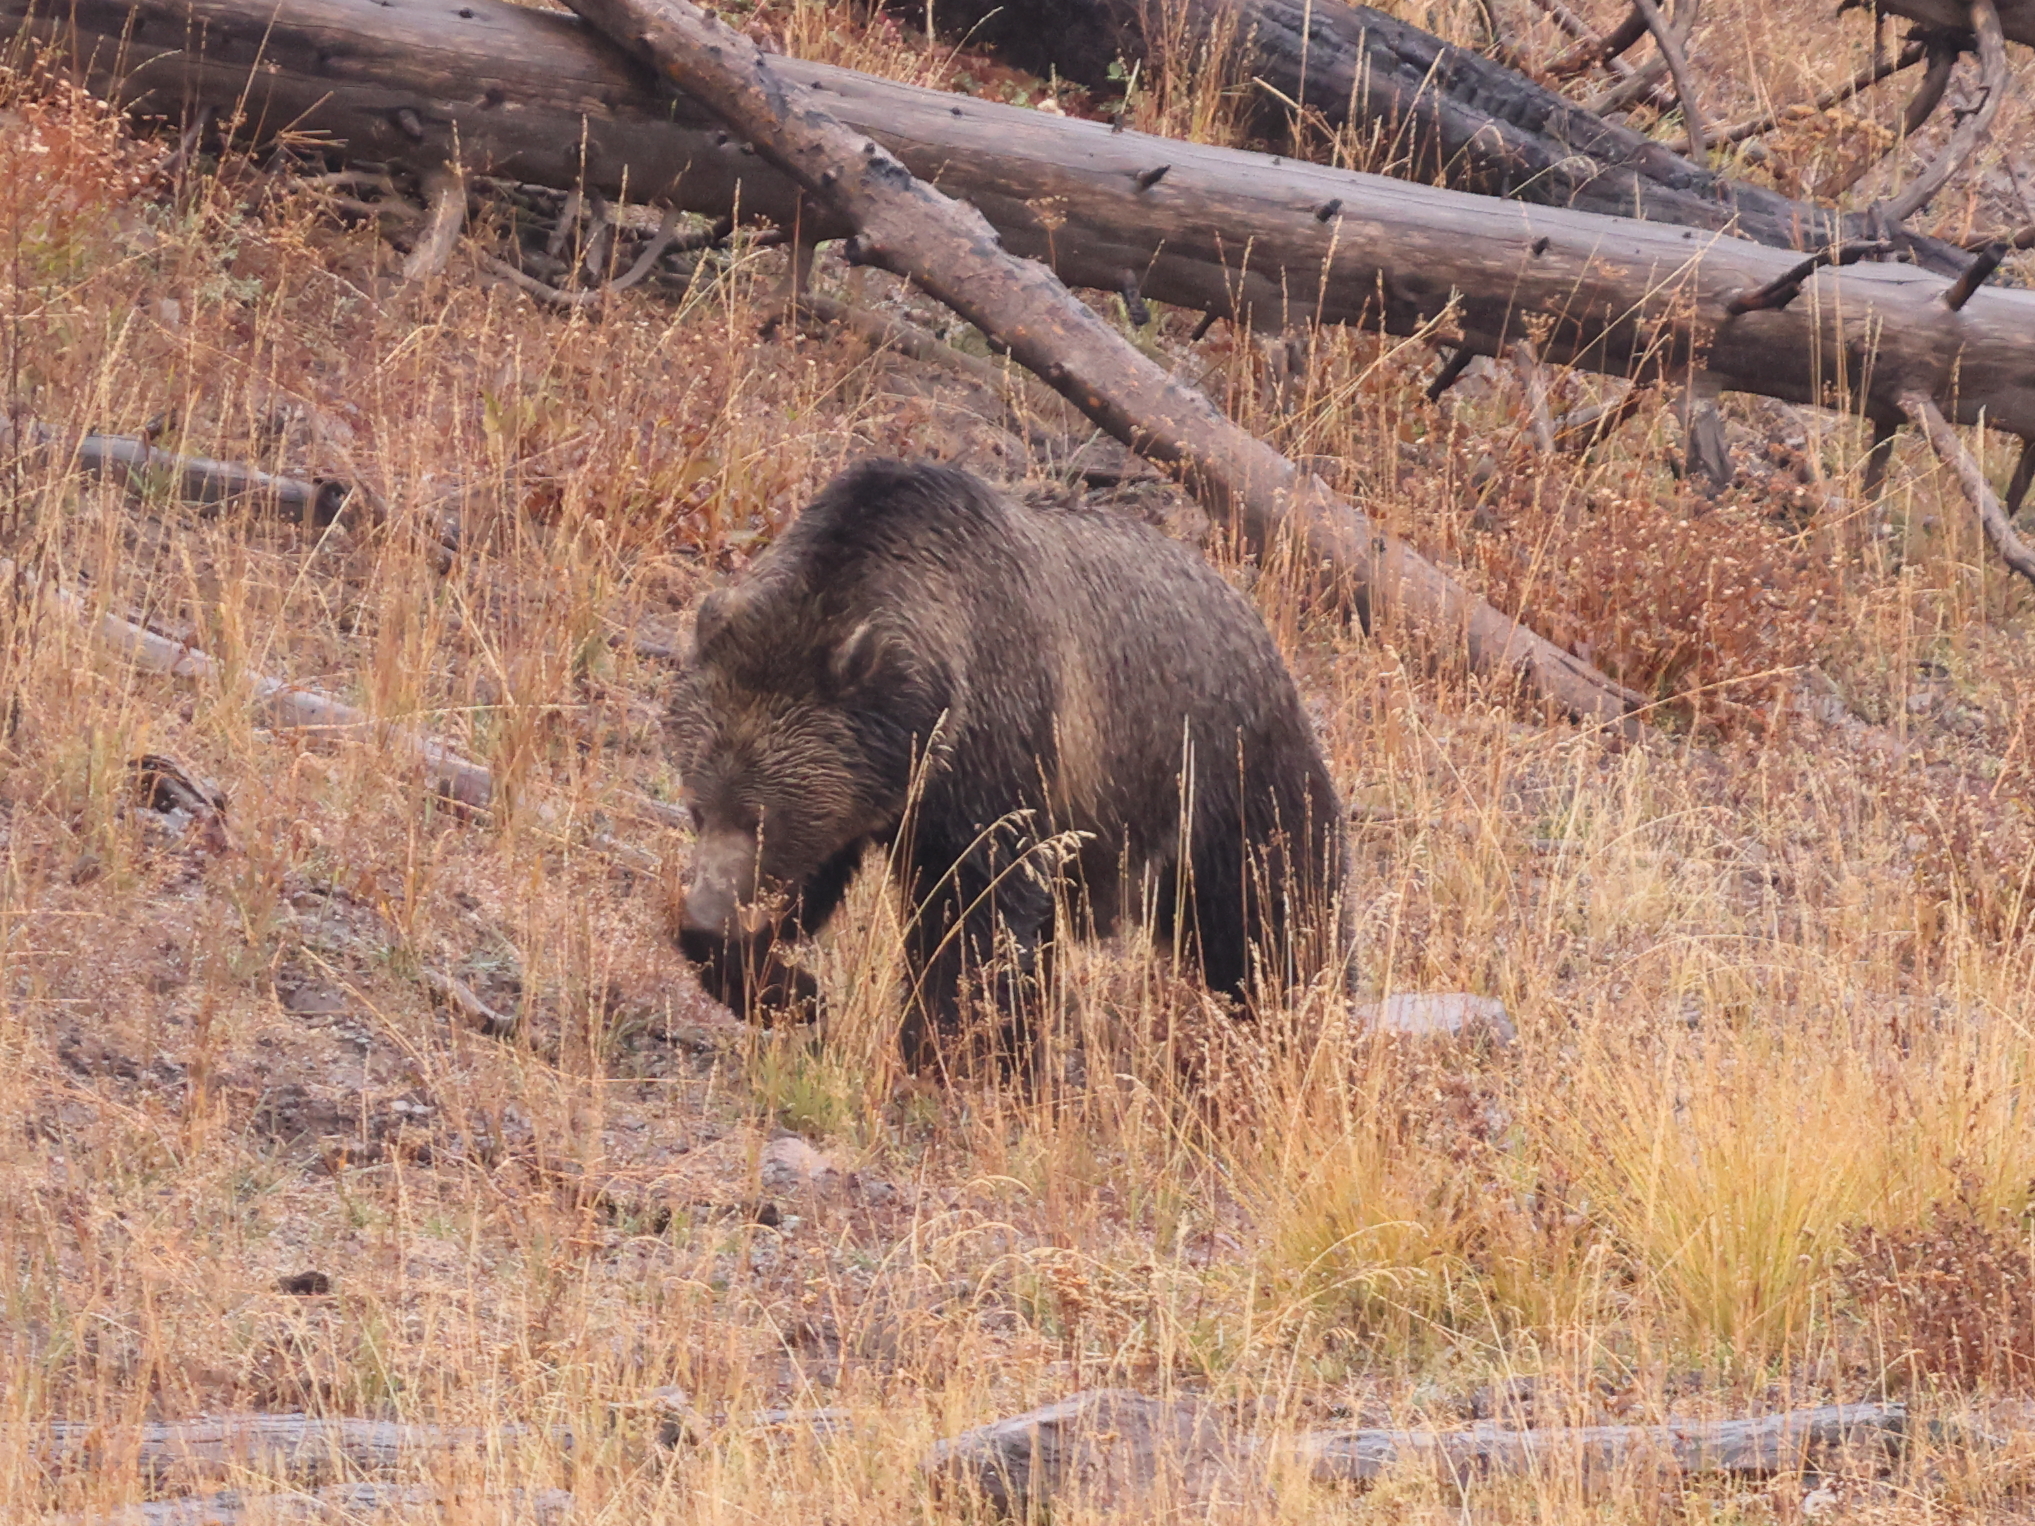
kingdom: Animalia
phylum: Chordata
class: Mammalia
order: Carnivora
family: Ursidae
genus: Ursus
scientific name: Ursus arctos
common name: Brown bear
